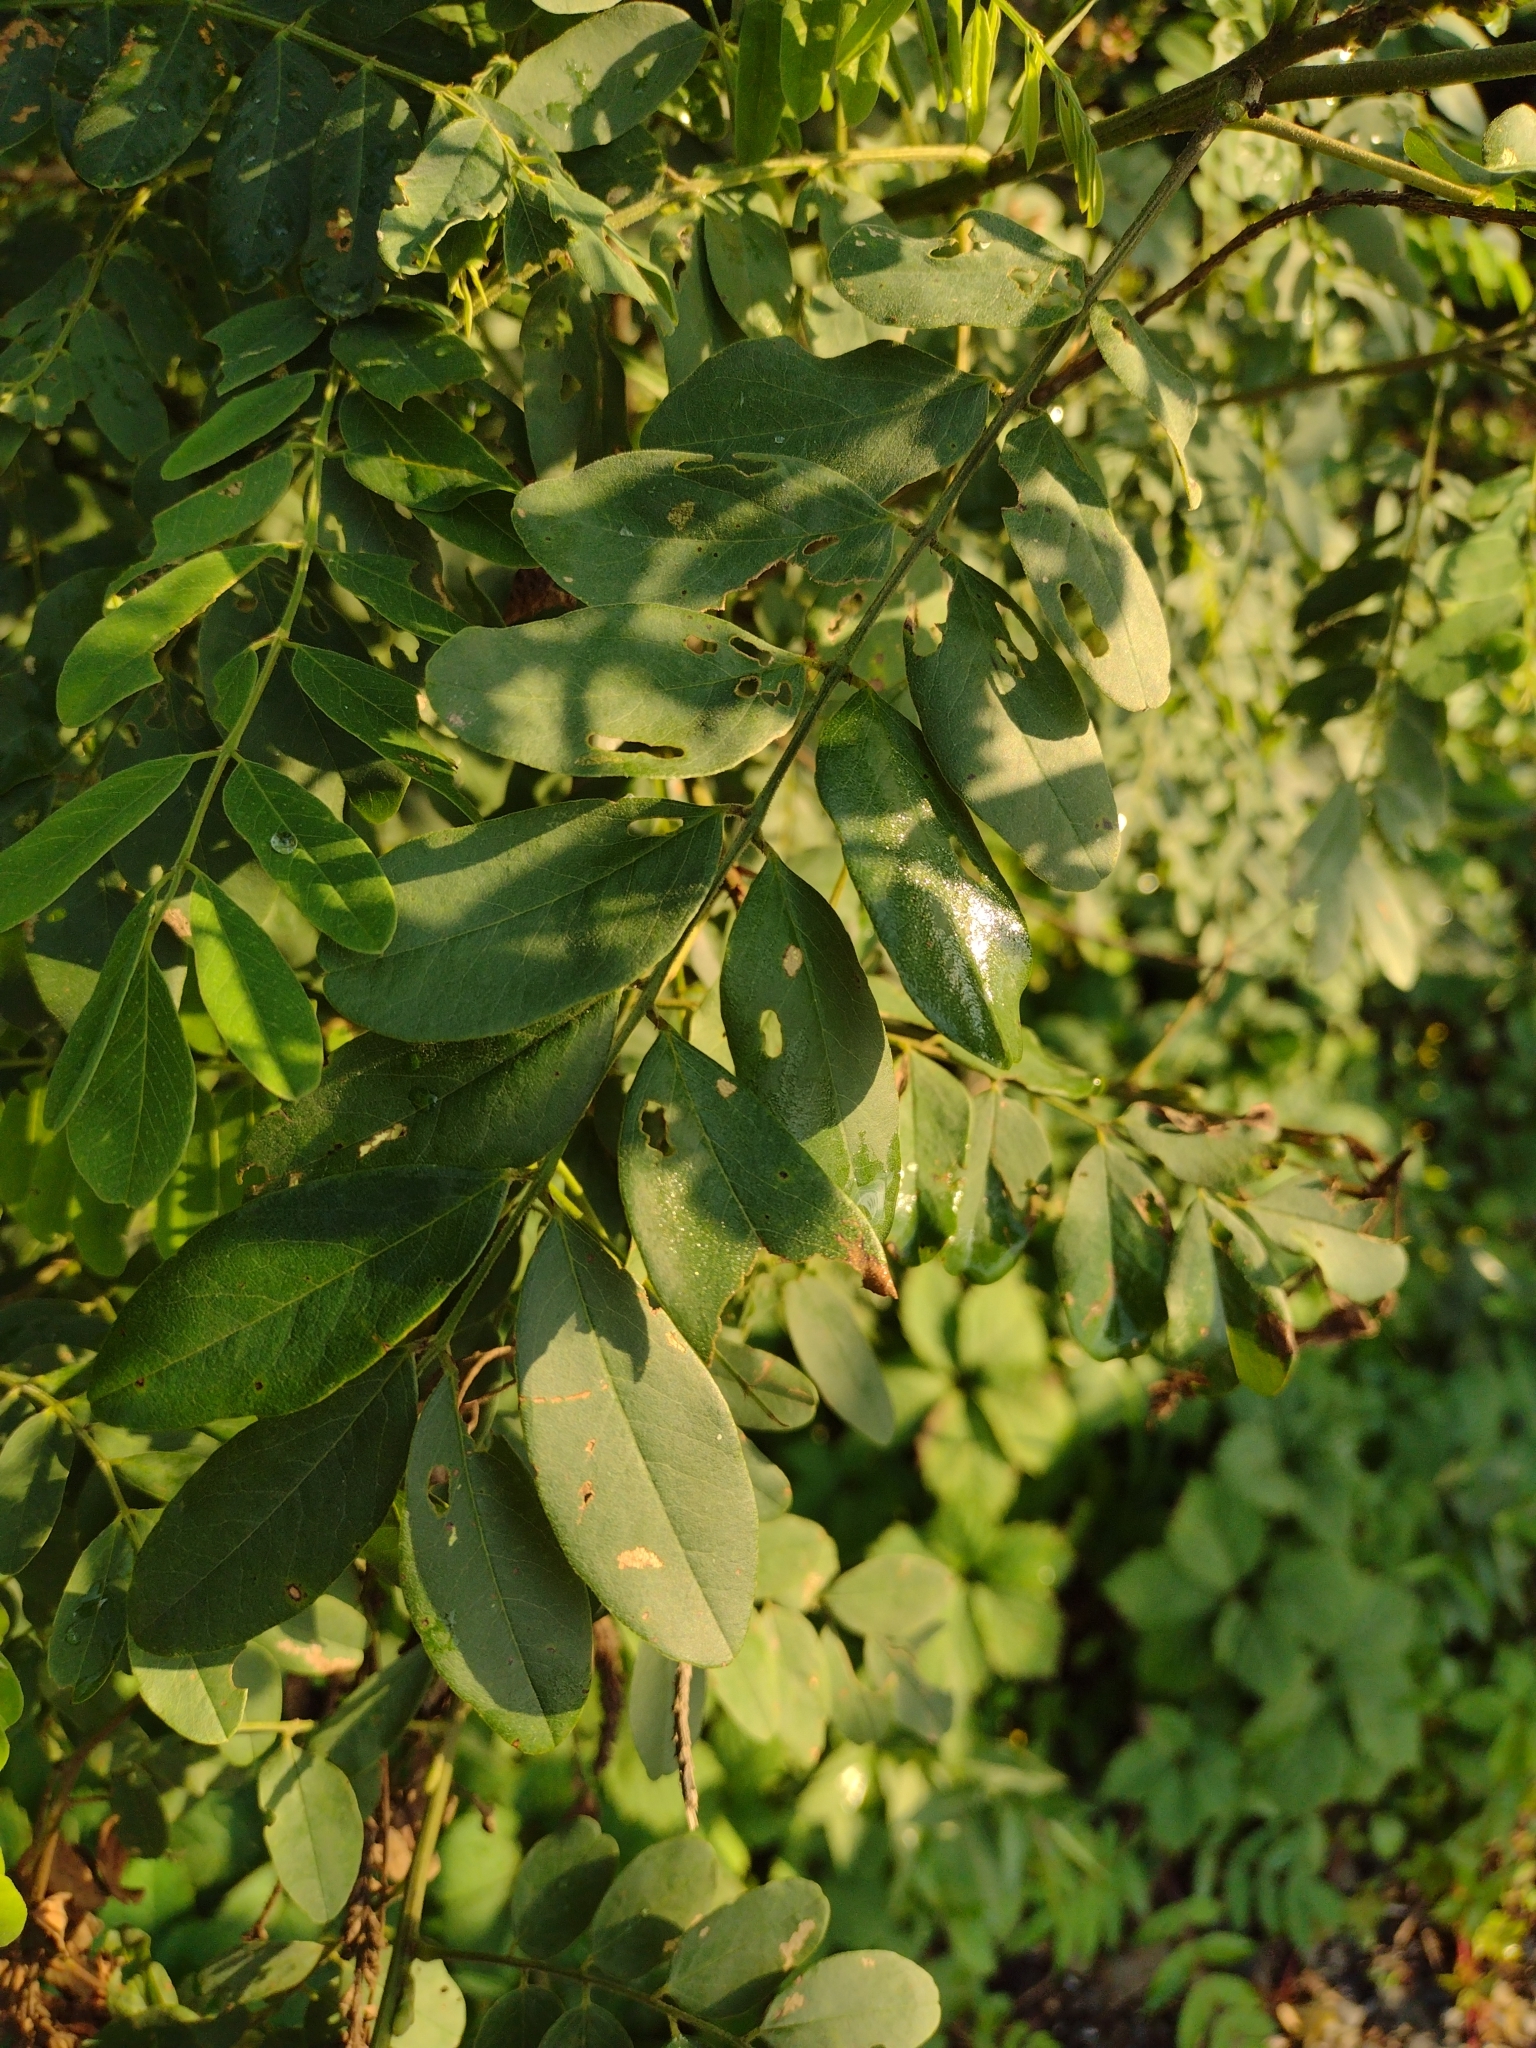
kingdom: Plantae
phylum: Tracheophyta
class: Magnoliopsida
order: Fabales
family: Fabaceae
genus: Amorpha
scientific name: Amorpha fruticosa
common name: False indigo
